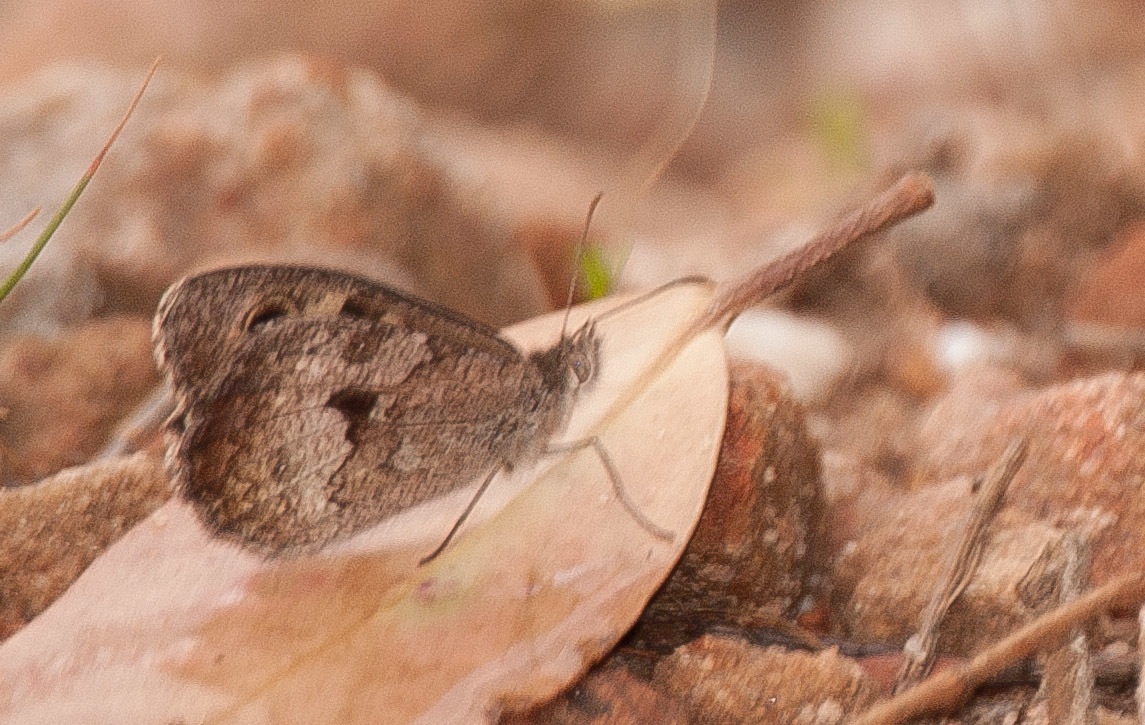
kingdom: Animalia
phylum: Arthropoda
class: Insecta
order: Lepidoptera
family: Nymphalidae
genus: Geitoneura
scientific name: Geitoneura klugii
